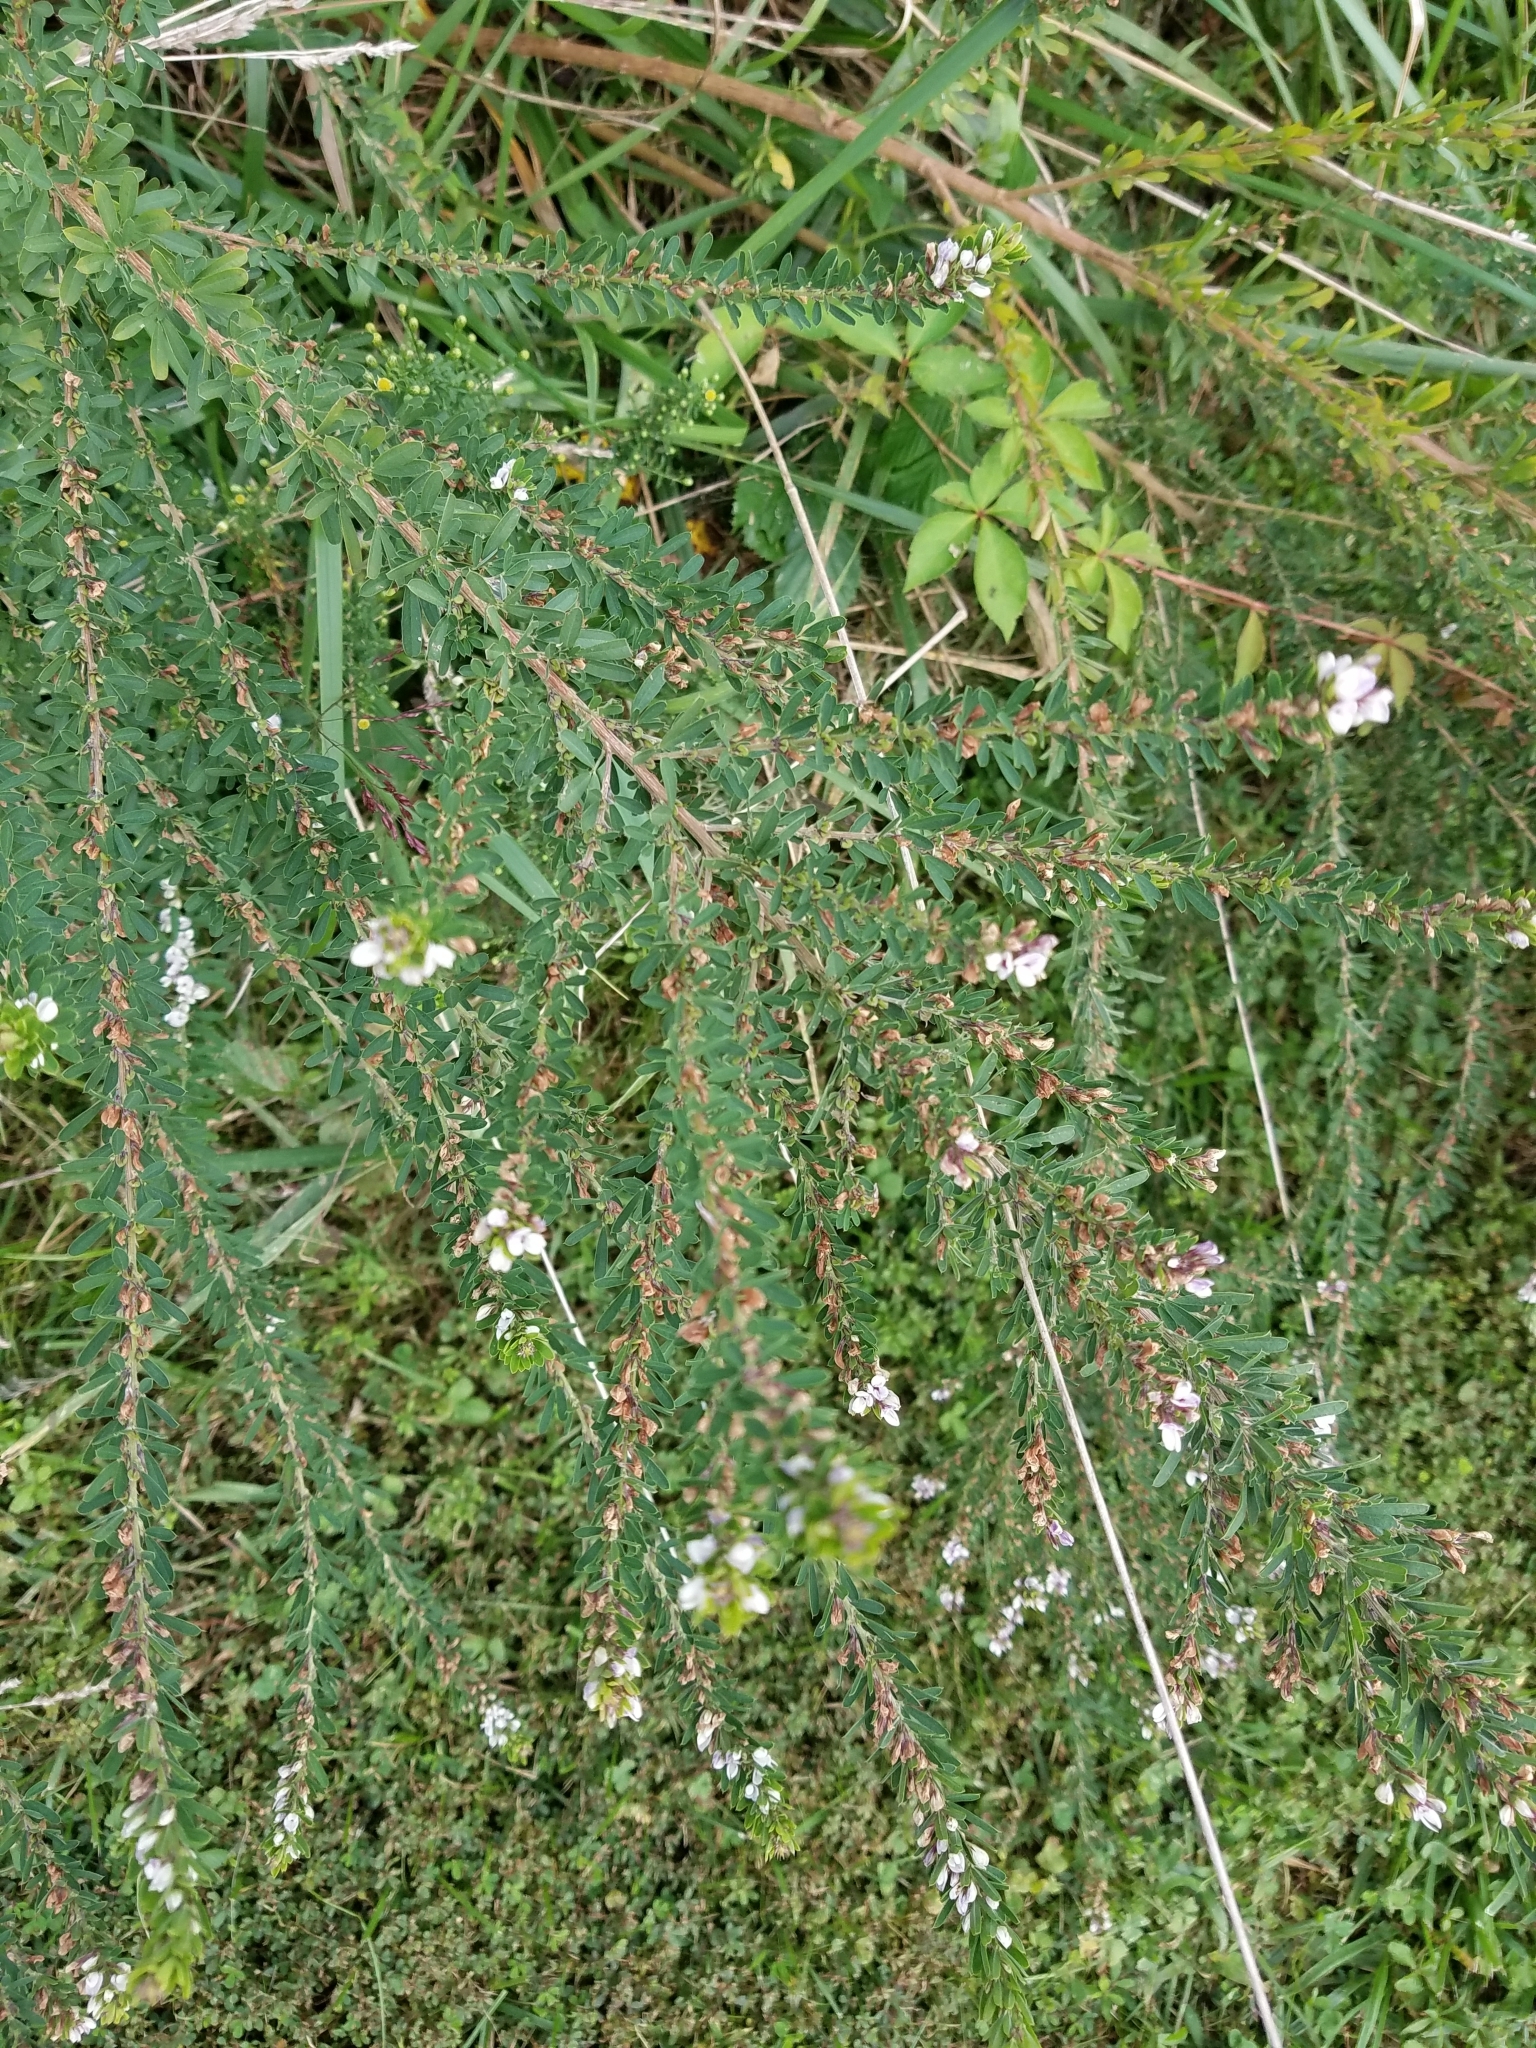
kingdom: Plantae
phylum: Tracheophyta
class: Magnoliopsida
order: Fabales
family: Fabaceae
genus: Lespedeza
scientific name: Lespedeza cuneata
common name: Chinese bush-clover
